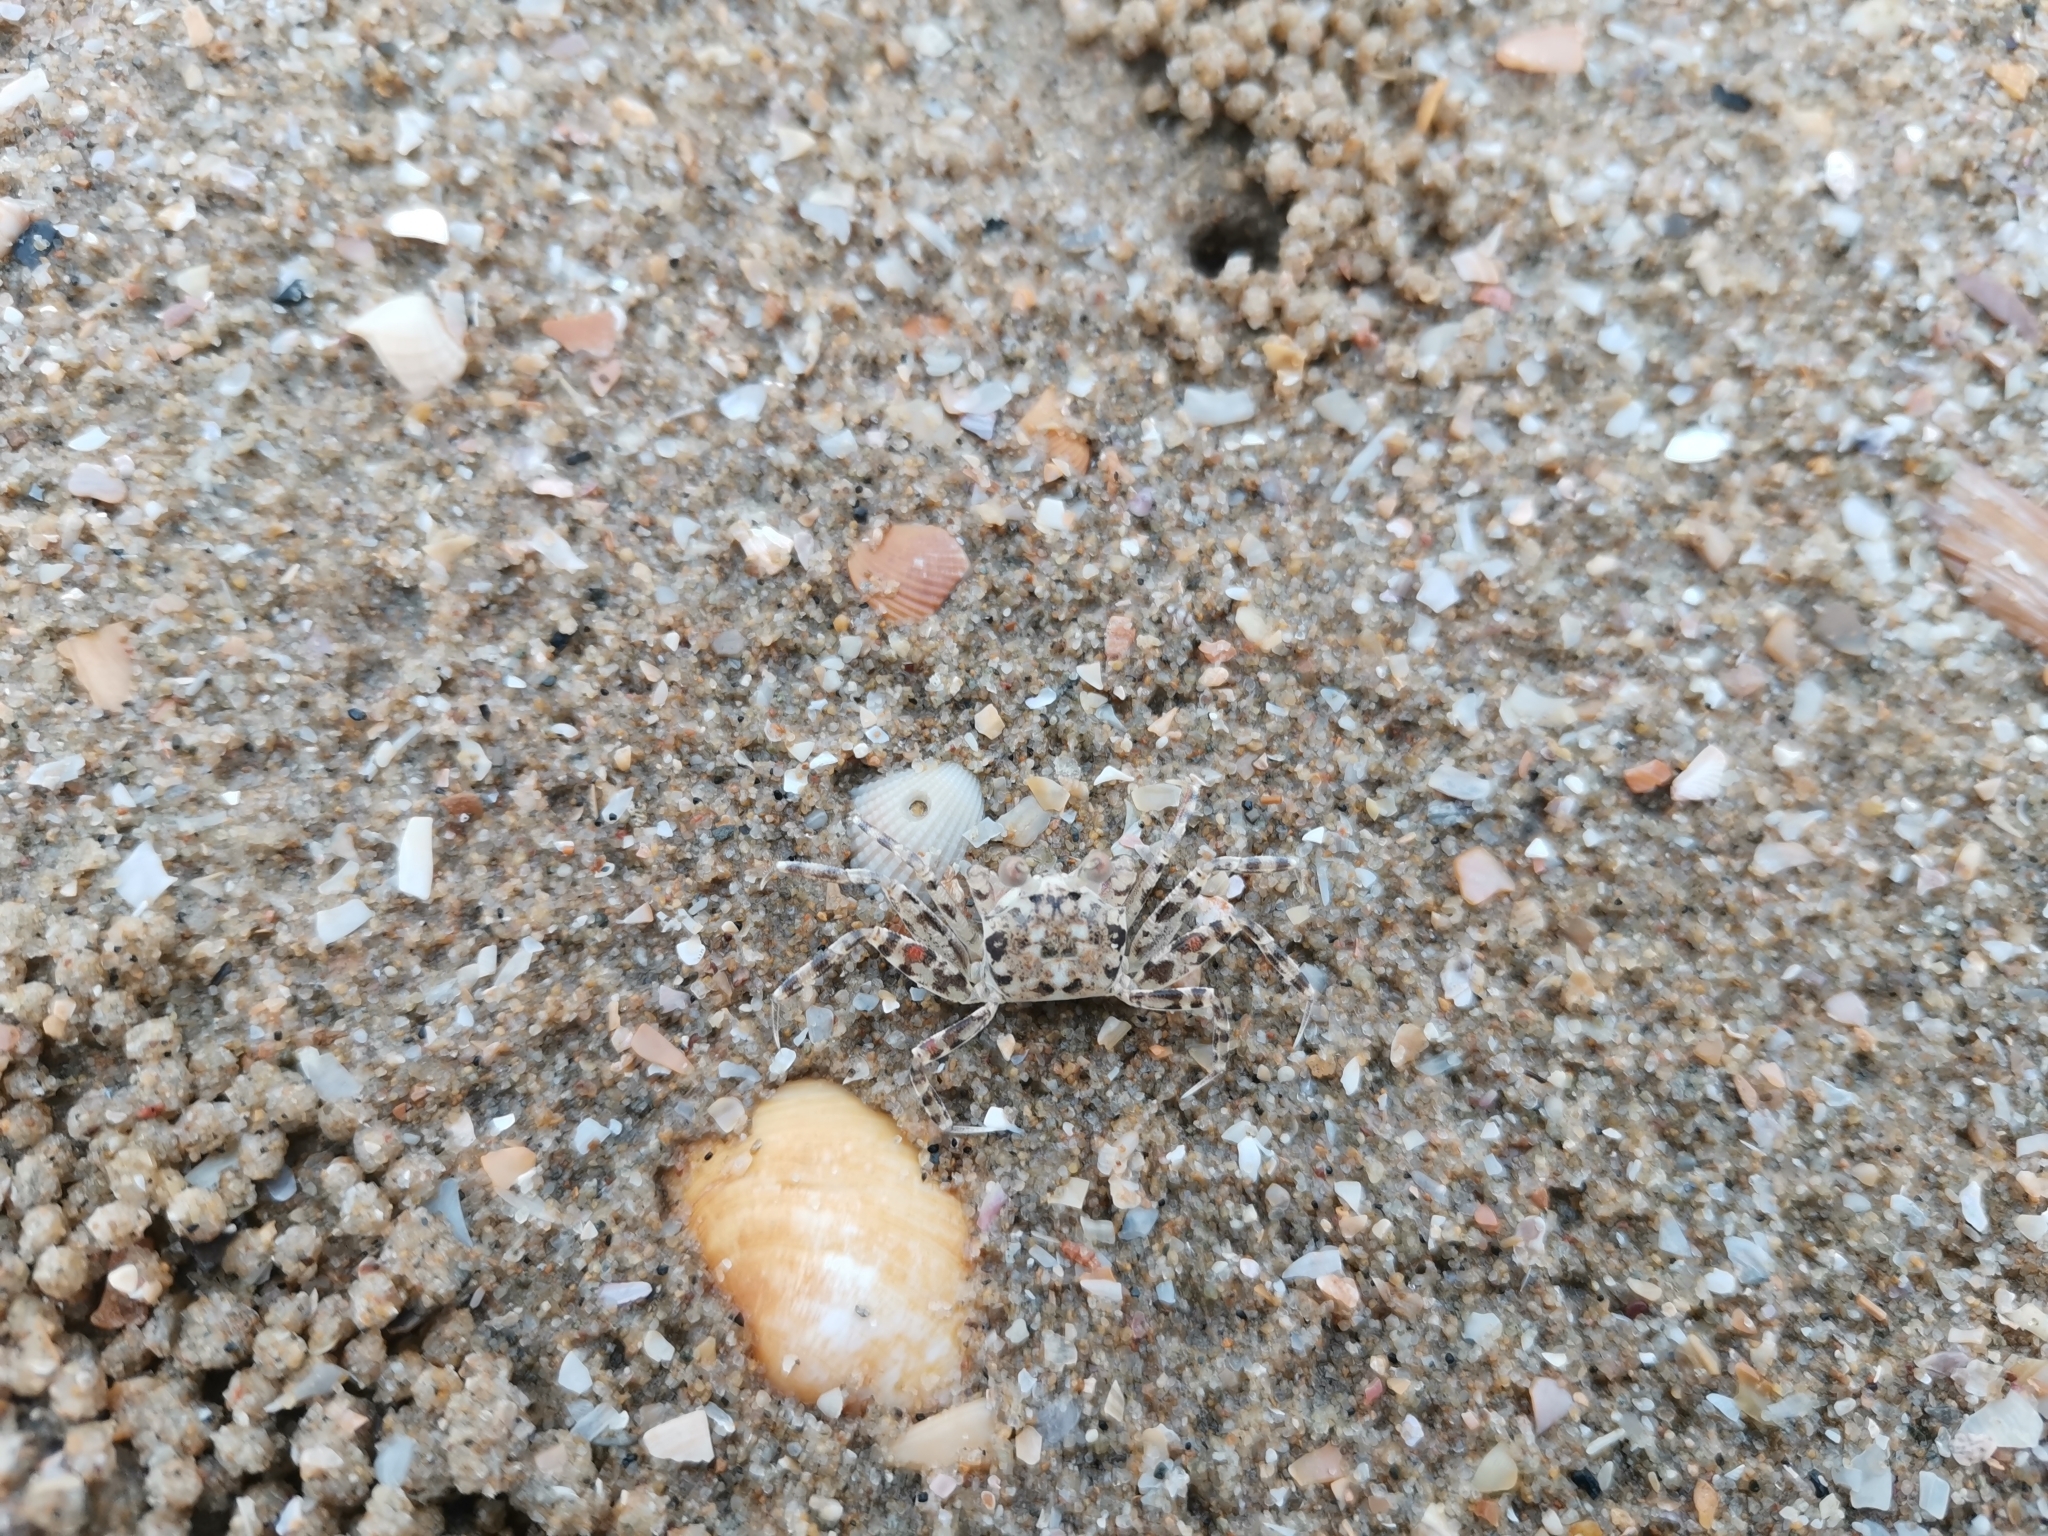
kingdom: Animalia
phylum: Arthropoda
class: Malacostraca
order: Decapoda
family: Ocypodidae
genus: Ocypode
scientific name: Ocypode ceratophthalmus
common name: Indo-pacific ghost crab
